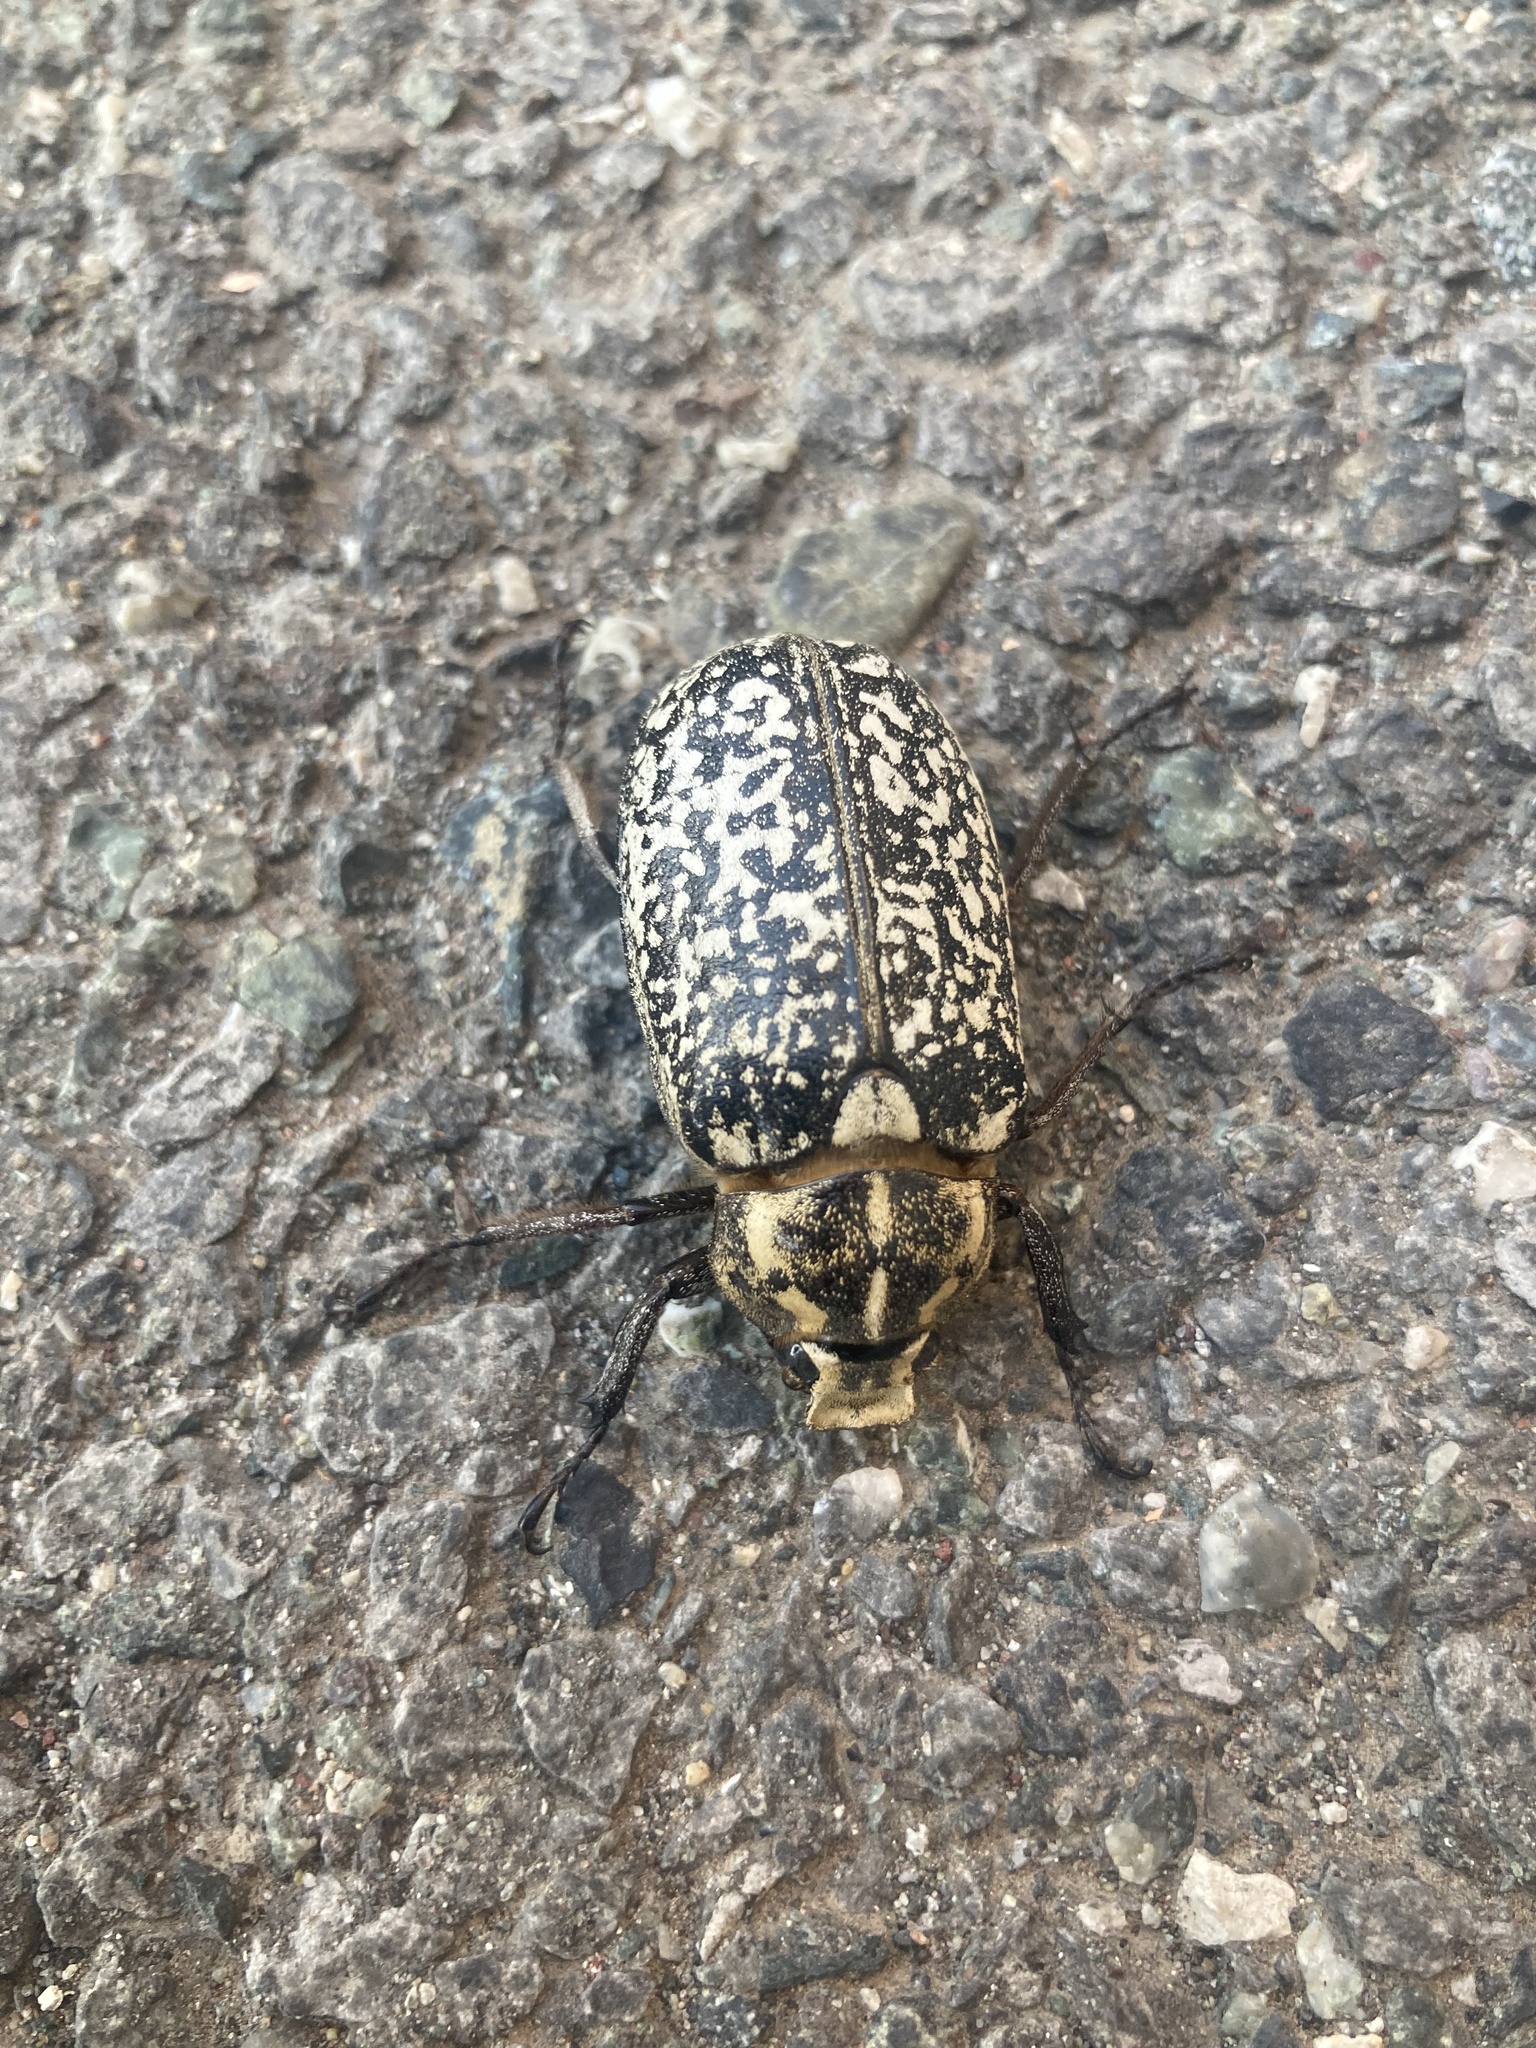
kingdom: Animalia
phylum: Arthropoda
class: Insecta
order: Coleoptera
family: Scarabaeidae
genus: Polyphylla
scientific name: Polyphylla fullo
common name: Pine chafer
